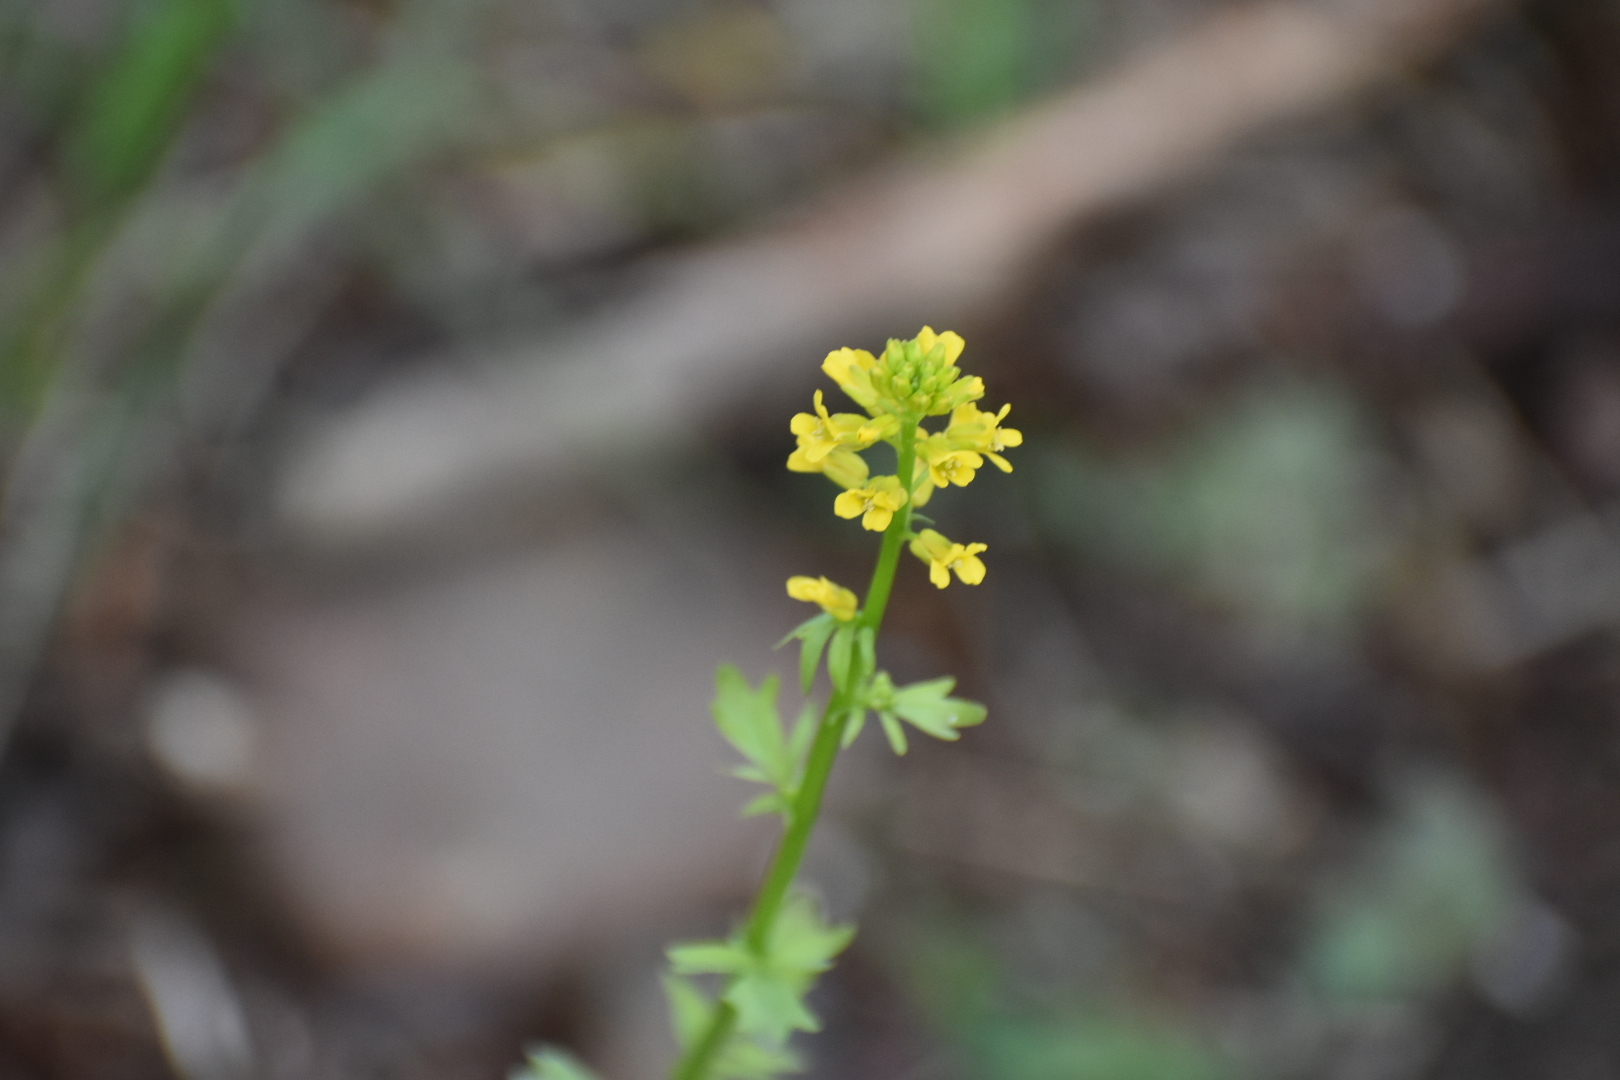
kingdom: Plantae
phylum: Tracheophyta
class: Magnoliopsida
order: Brassicales
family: Brassicaceae
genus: Barbarea
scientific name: Barbarea vulgaris
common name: Cressy-greens
